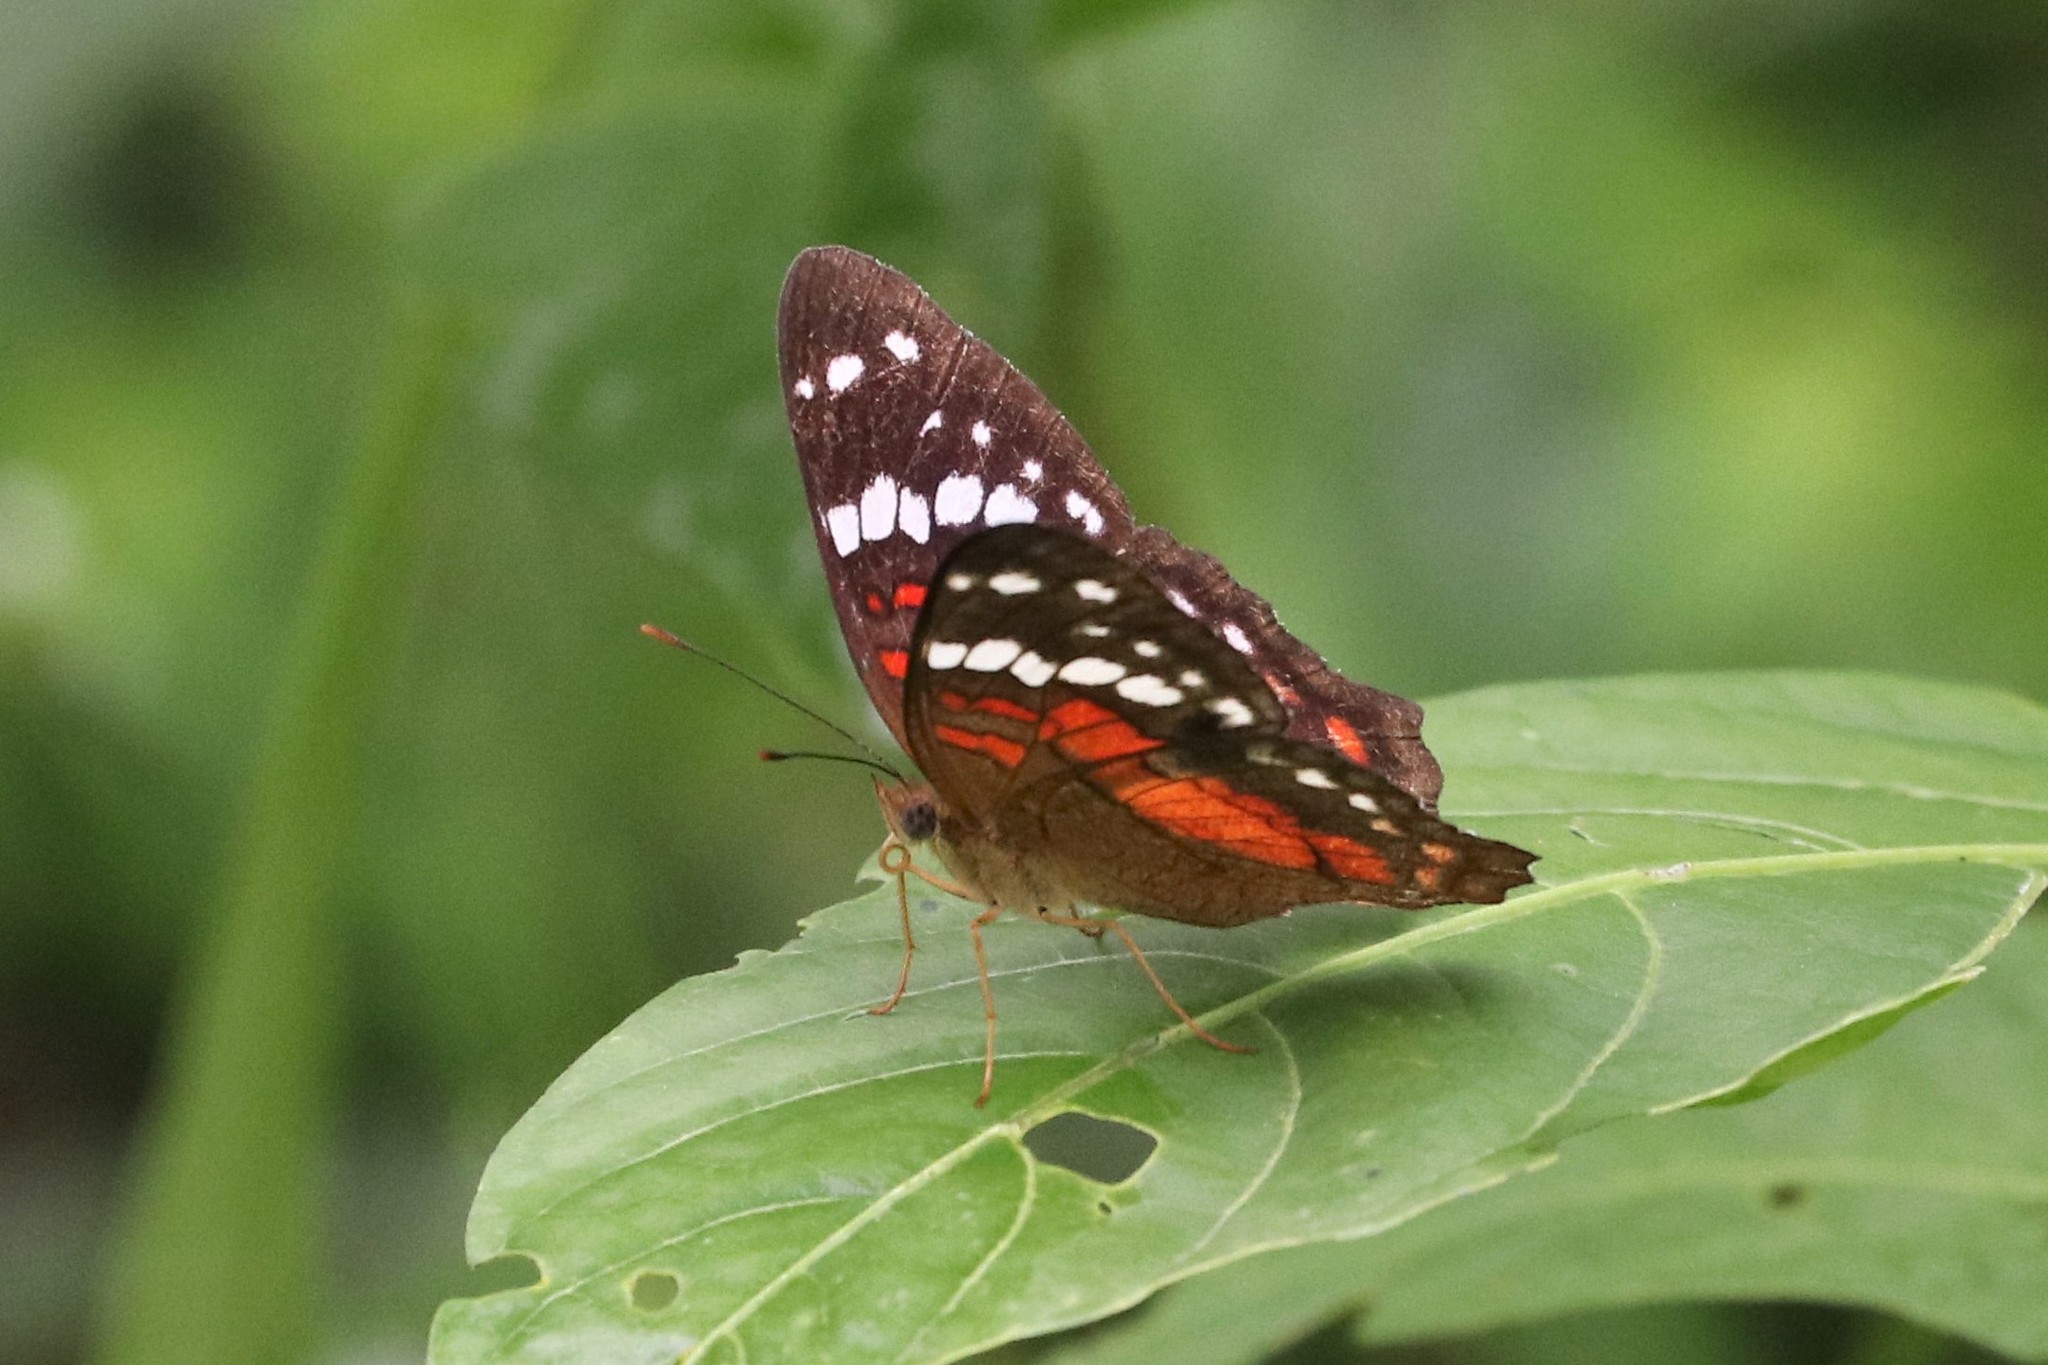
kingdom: Animalia
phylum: Arthropoda
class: Insecta
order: Lepidoptera
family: Nymphalidae
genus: Anartia
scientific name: Anartia amathea
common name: Red peacock
